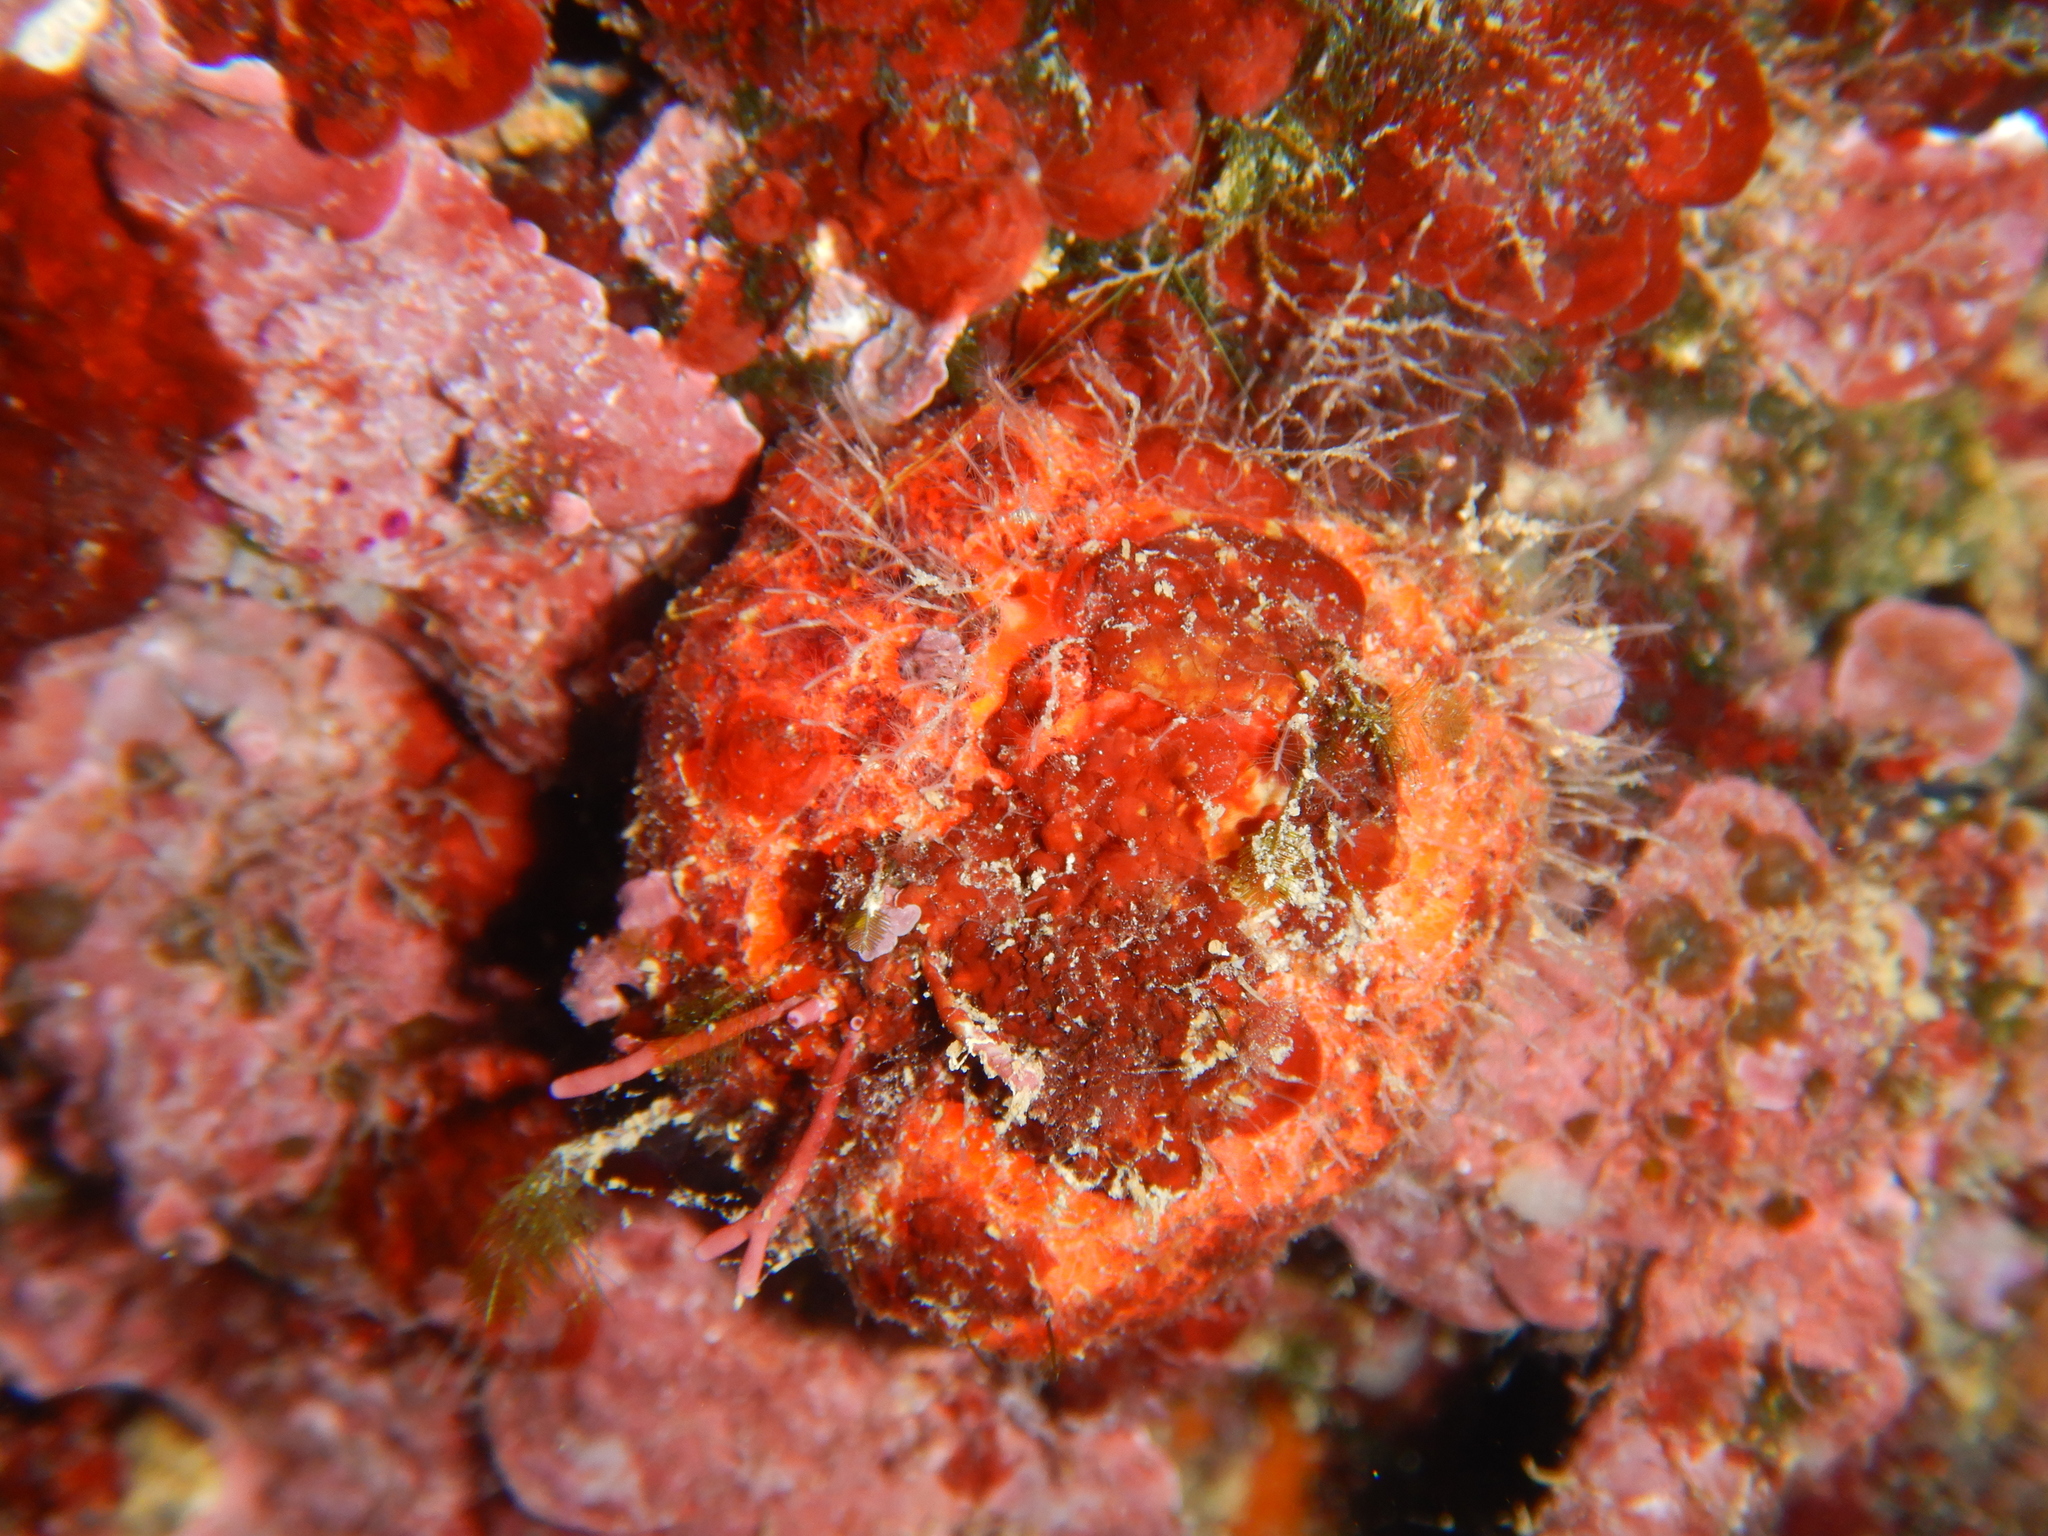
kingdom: Animalia
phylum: Porifera
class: Demospongiae
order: Tethyida
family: Tethyidae
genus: Tethya
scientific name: Tethya aurantium
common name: Golf ball sponge
